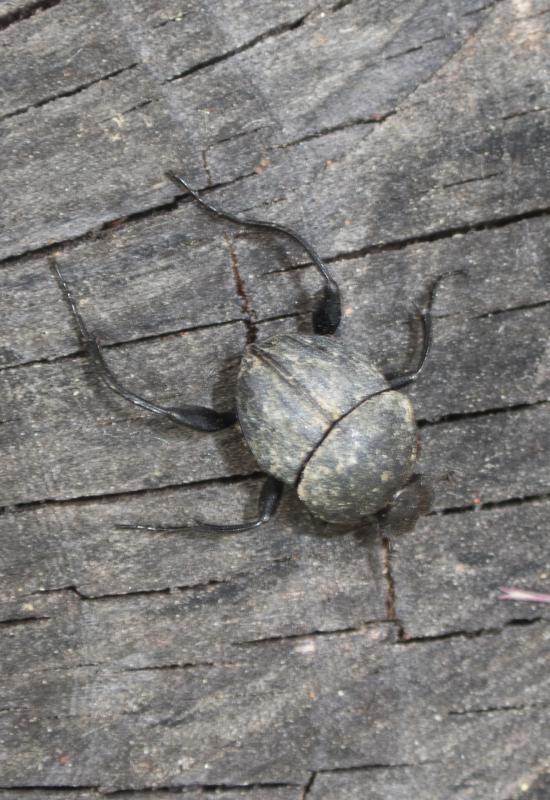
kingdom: Animalia
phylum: Arthropoda
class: Insecta
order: Coleoptera
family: Scarabaeidae
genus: Sisyphus
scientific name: Sisyphus schaefferi
